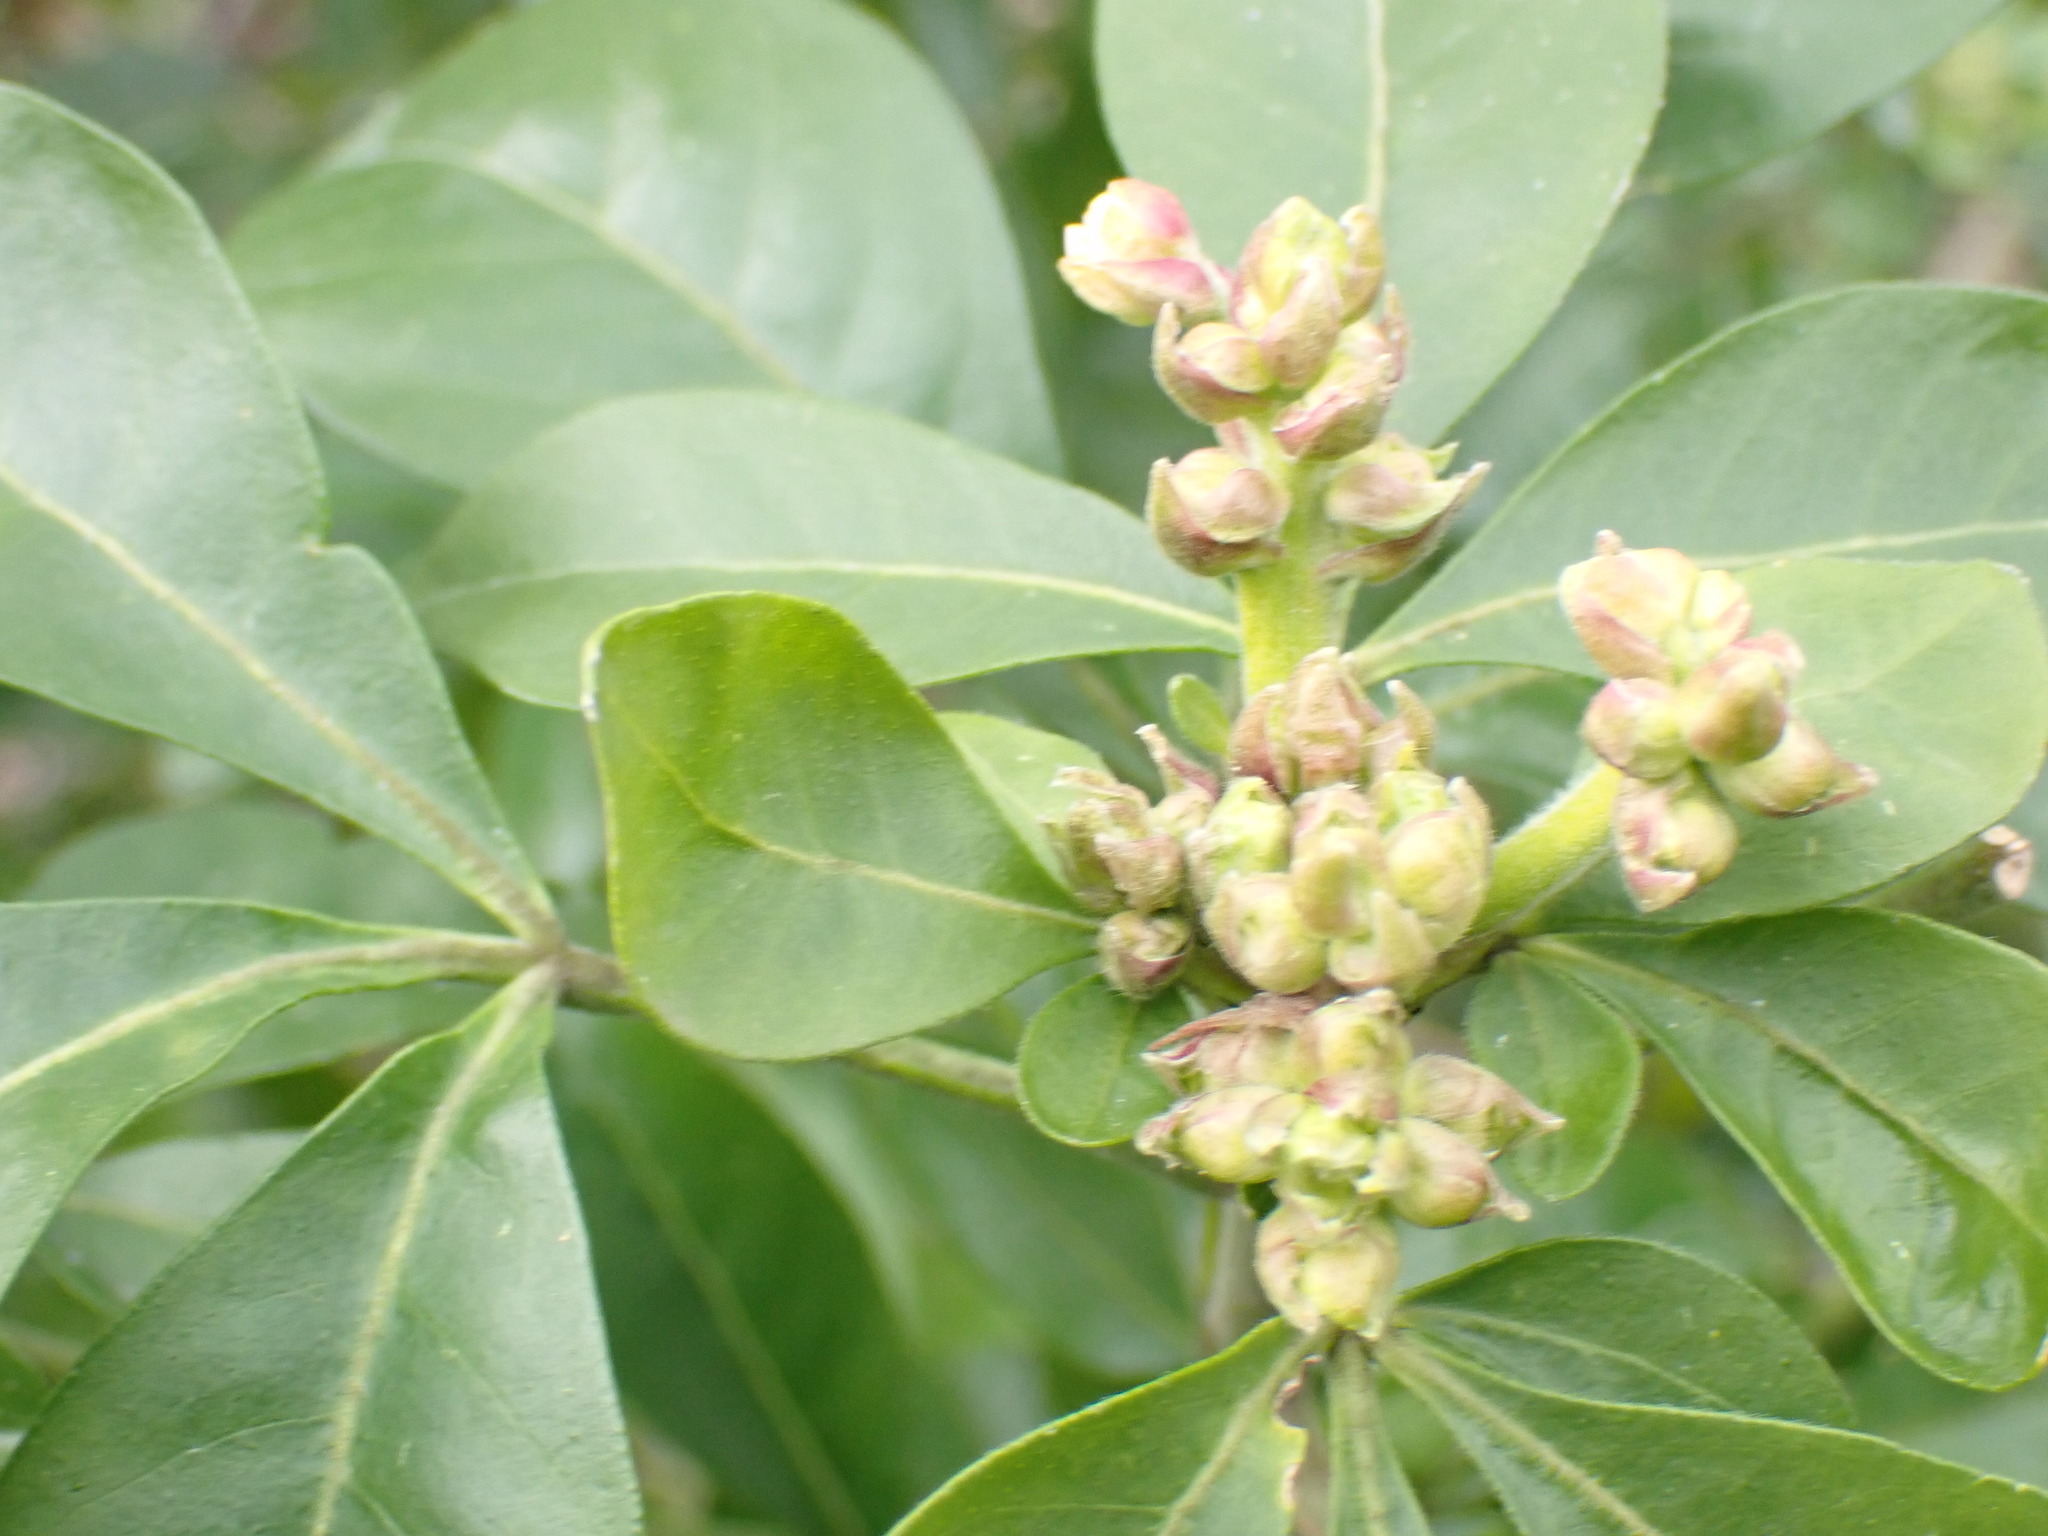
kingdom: Plantae
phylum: Tracheophyta
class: Magnoliopsida
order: Sapindales
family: Rutaceae
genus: Choisya
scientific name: Choisya ternata
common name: Mexican orange
